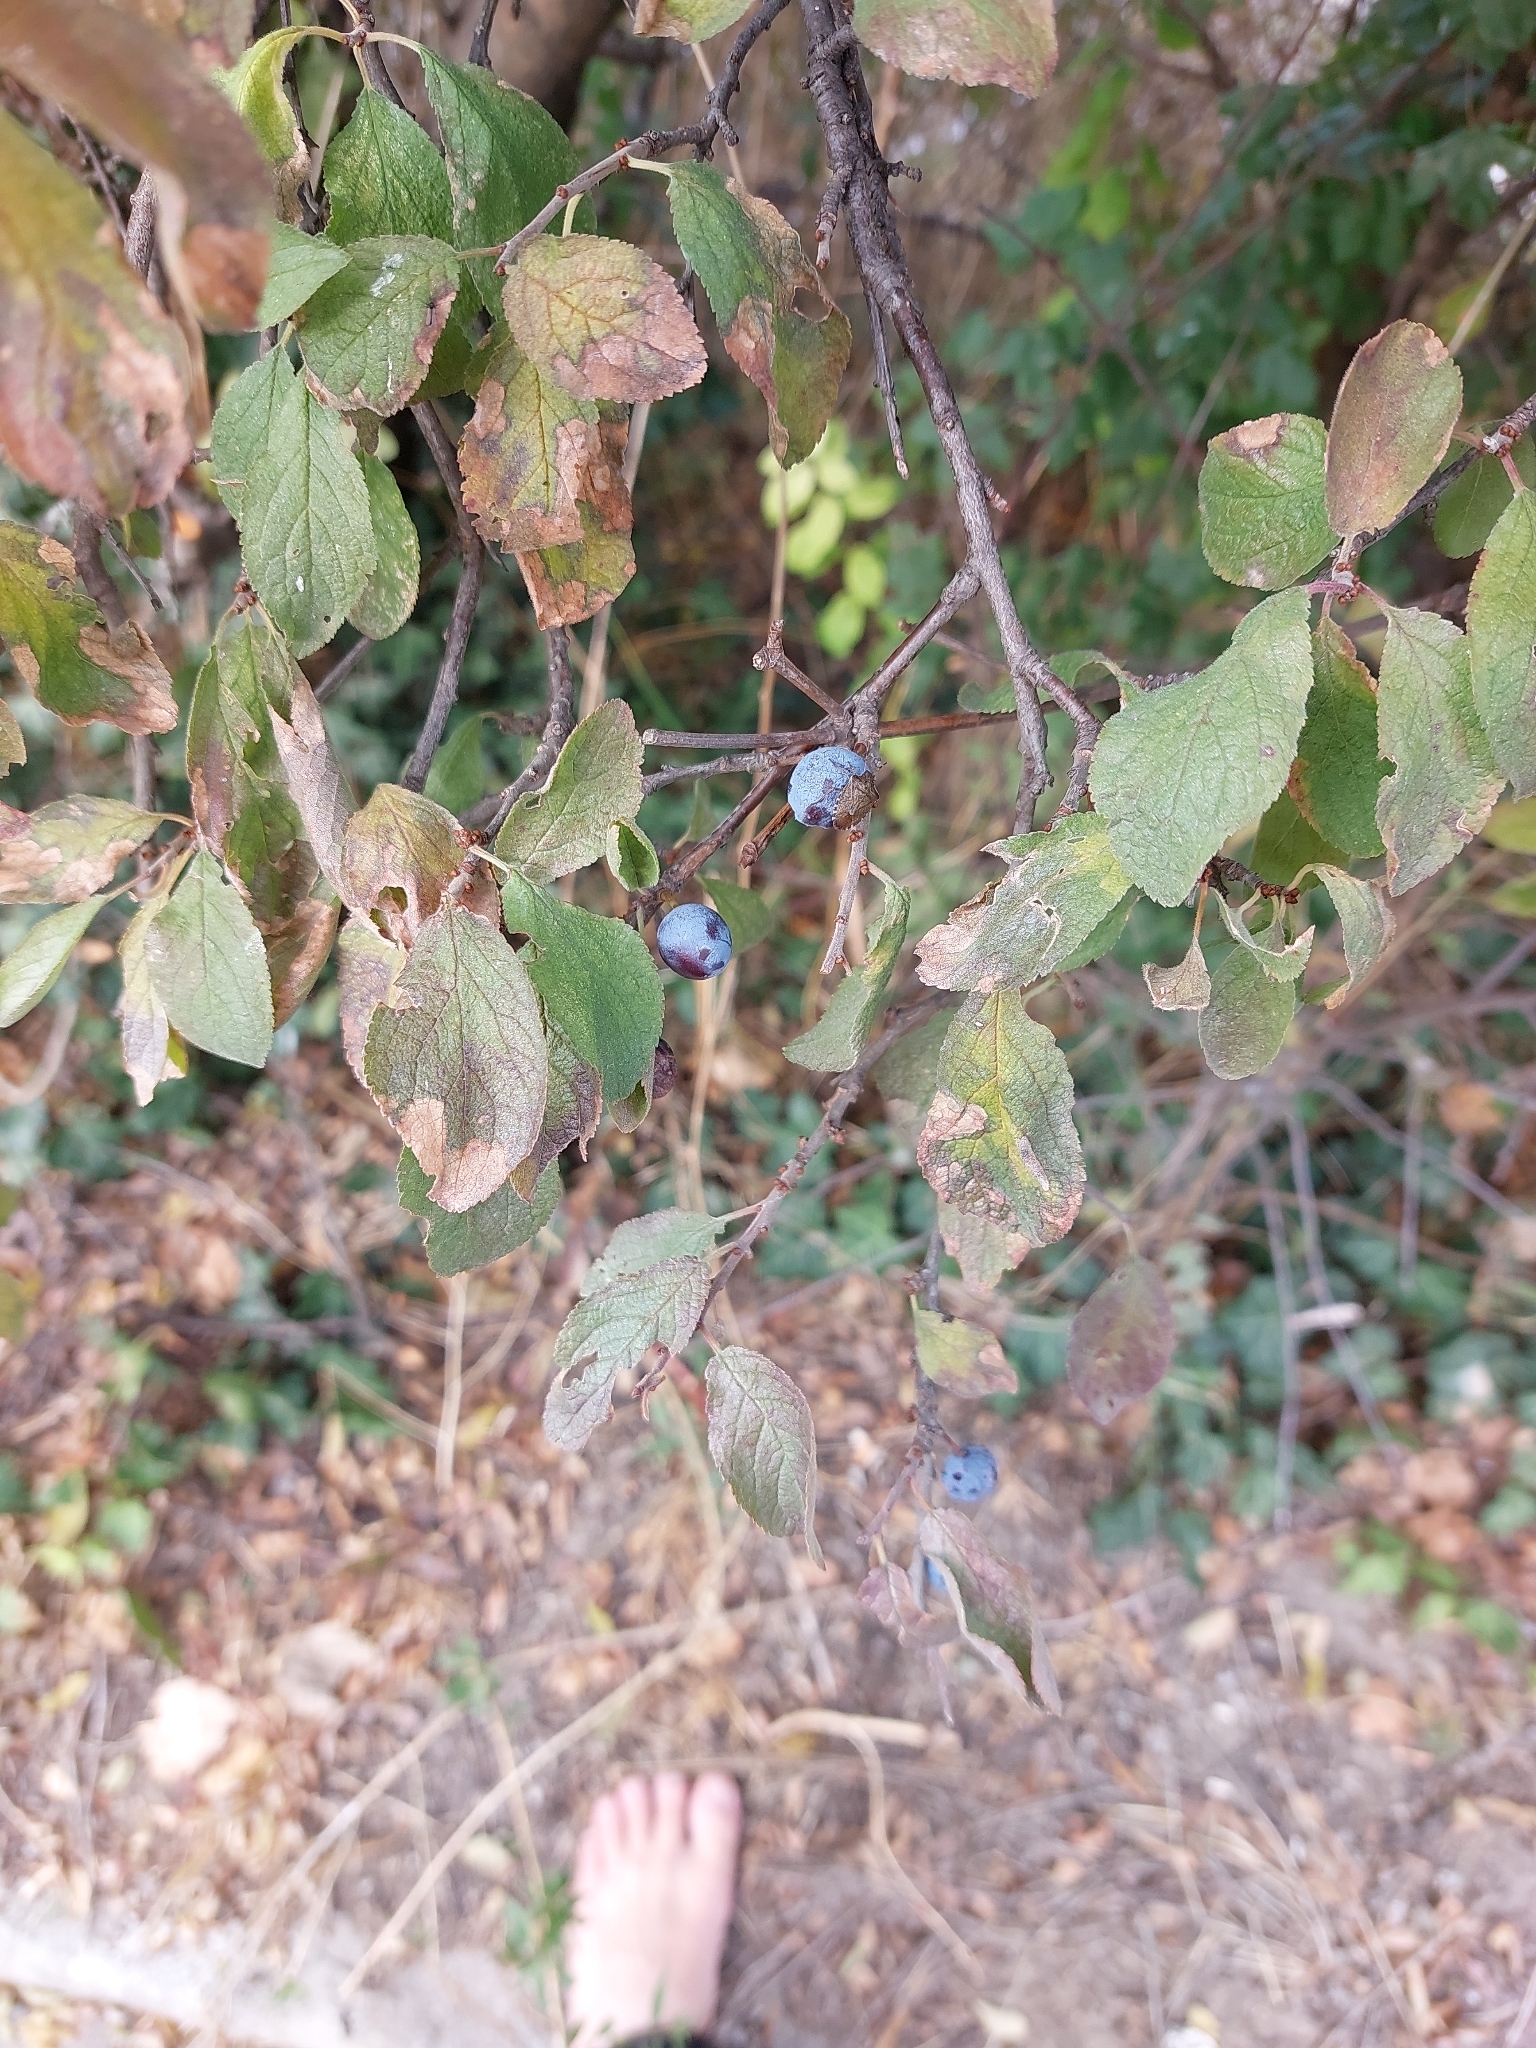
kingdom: Plantae
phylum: Tracheophyta
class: Magnoliopsida
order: Rosales
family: Rosaceae
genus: Prunus
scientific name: Prunus spinosa
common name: Blackthorn
